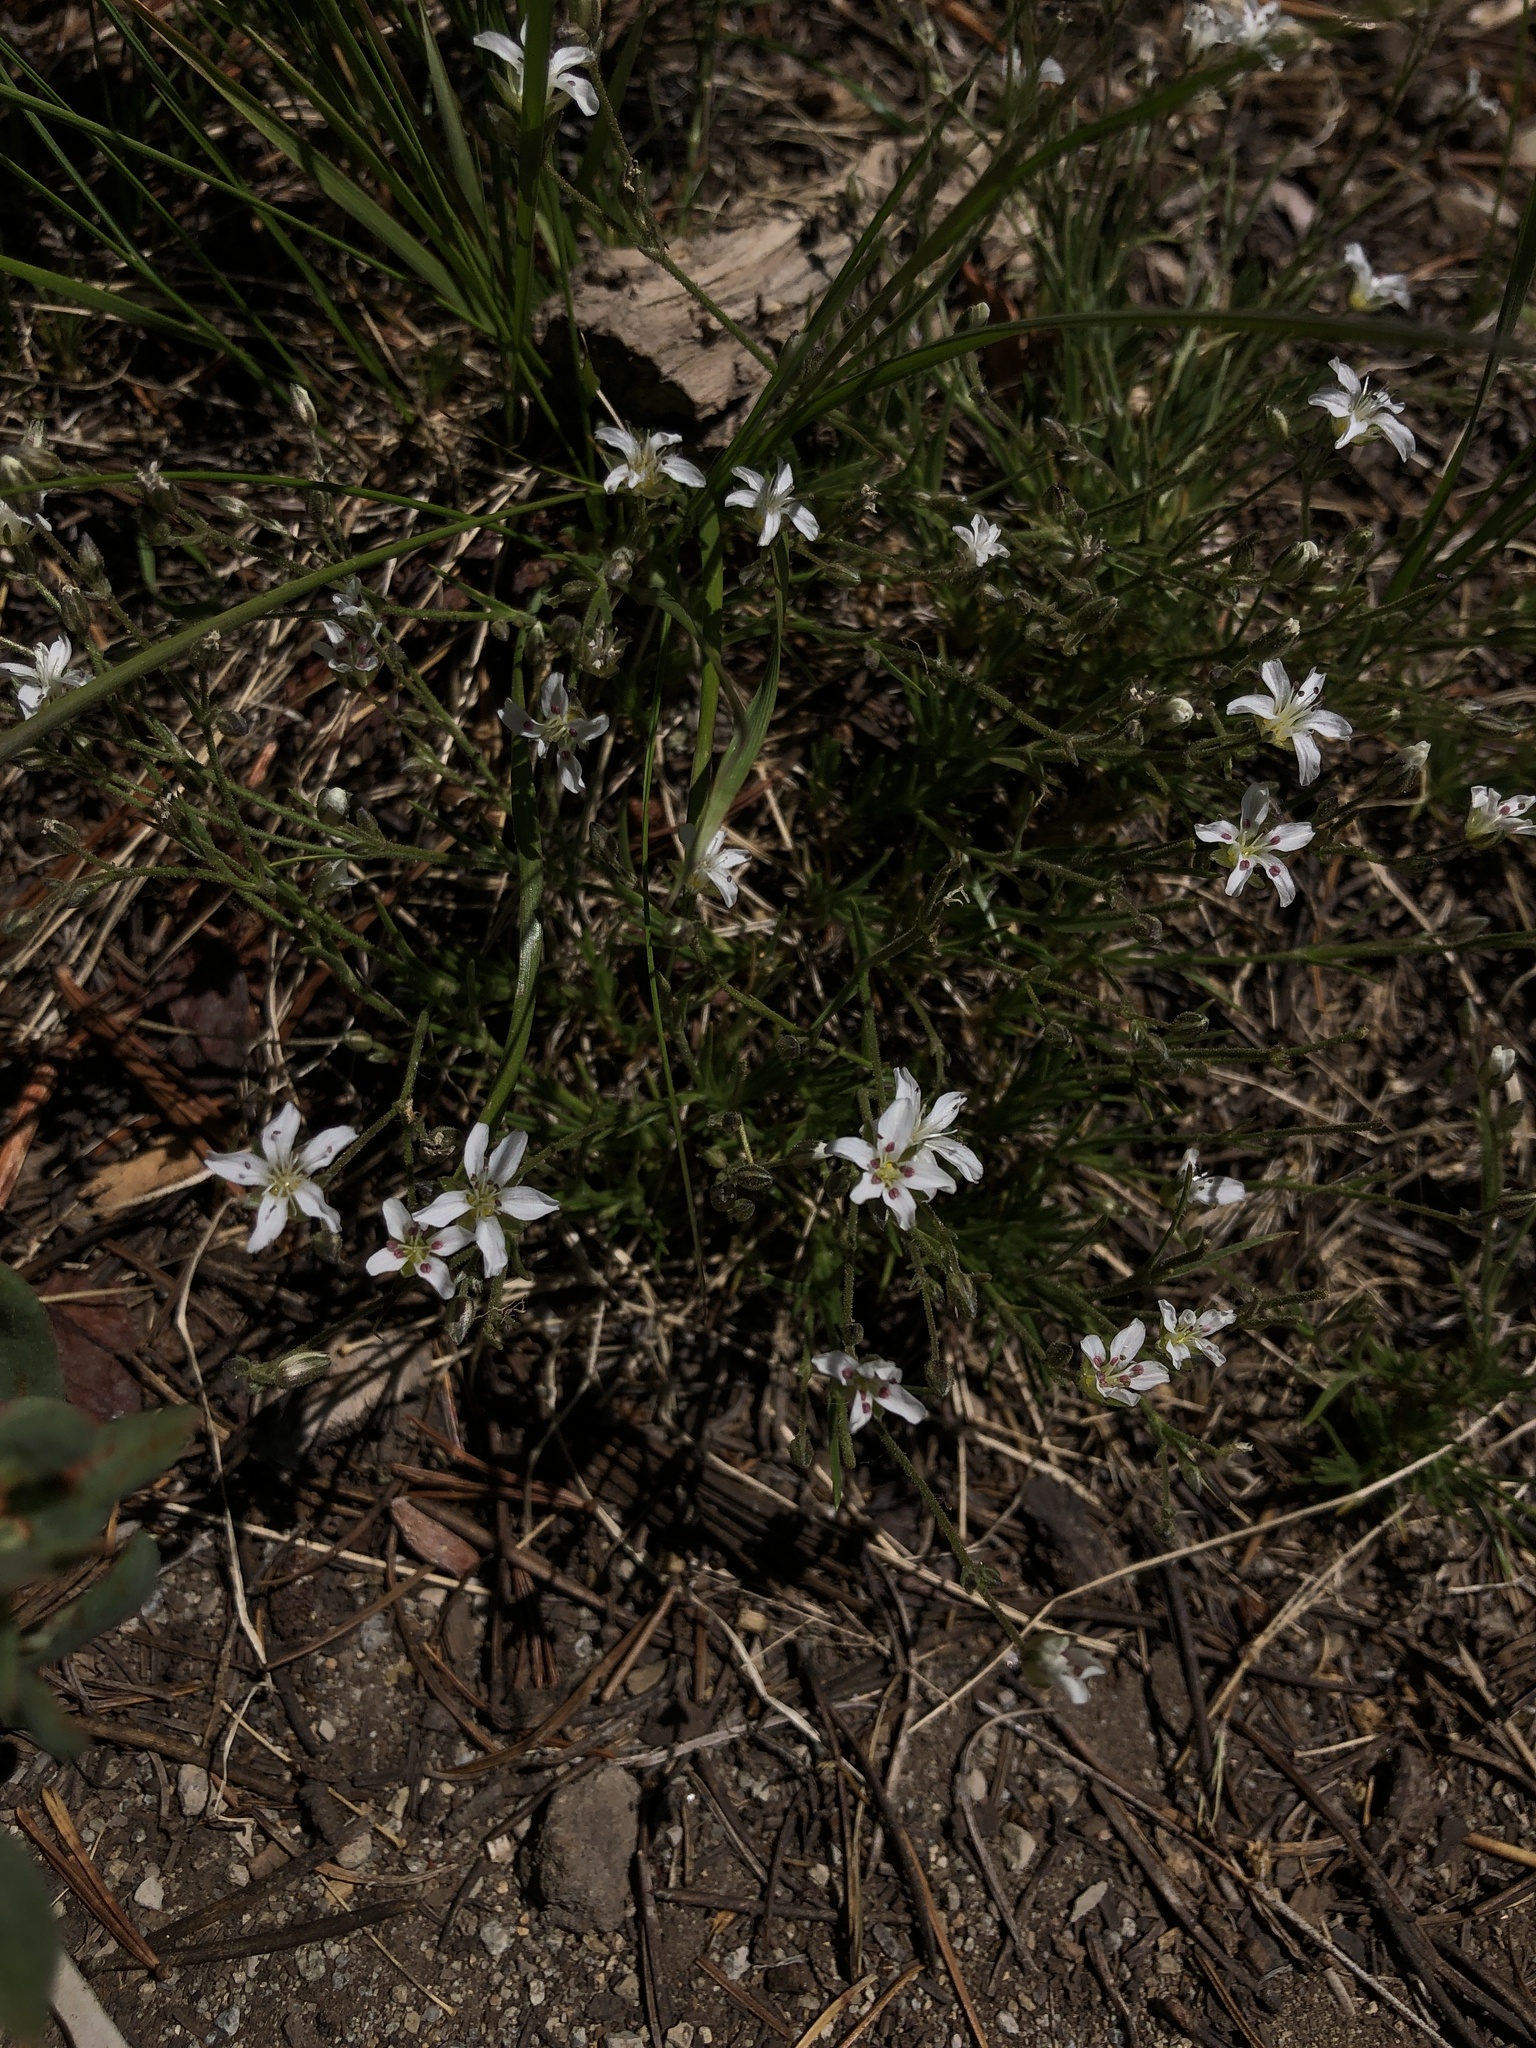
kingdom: Plantae
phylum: Tracheophyta
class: Magnoliopsida
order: Caryophyllales
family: Caryophyllaceae
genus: Eremogone
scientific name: Eremogone kingii
